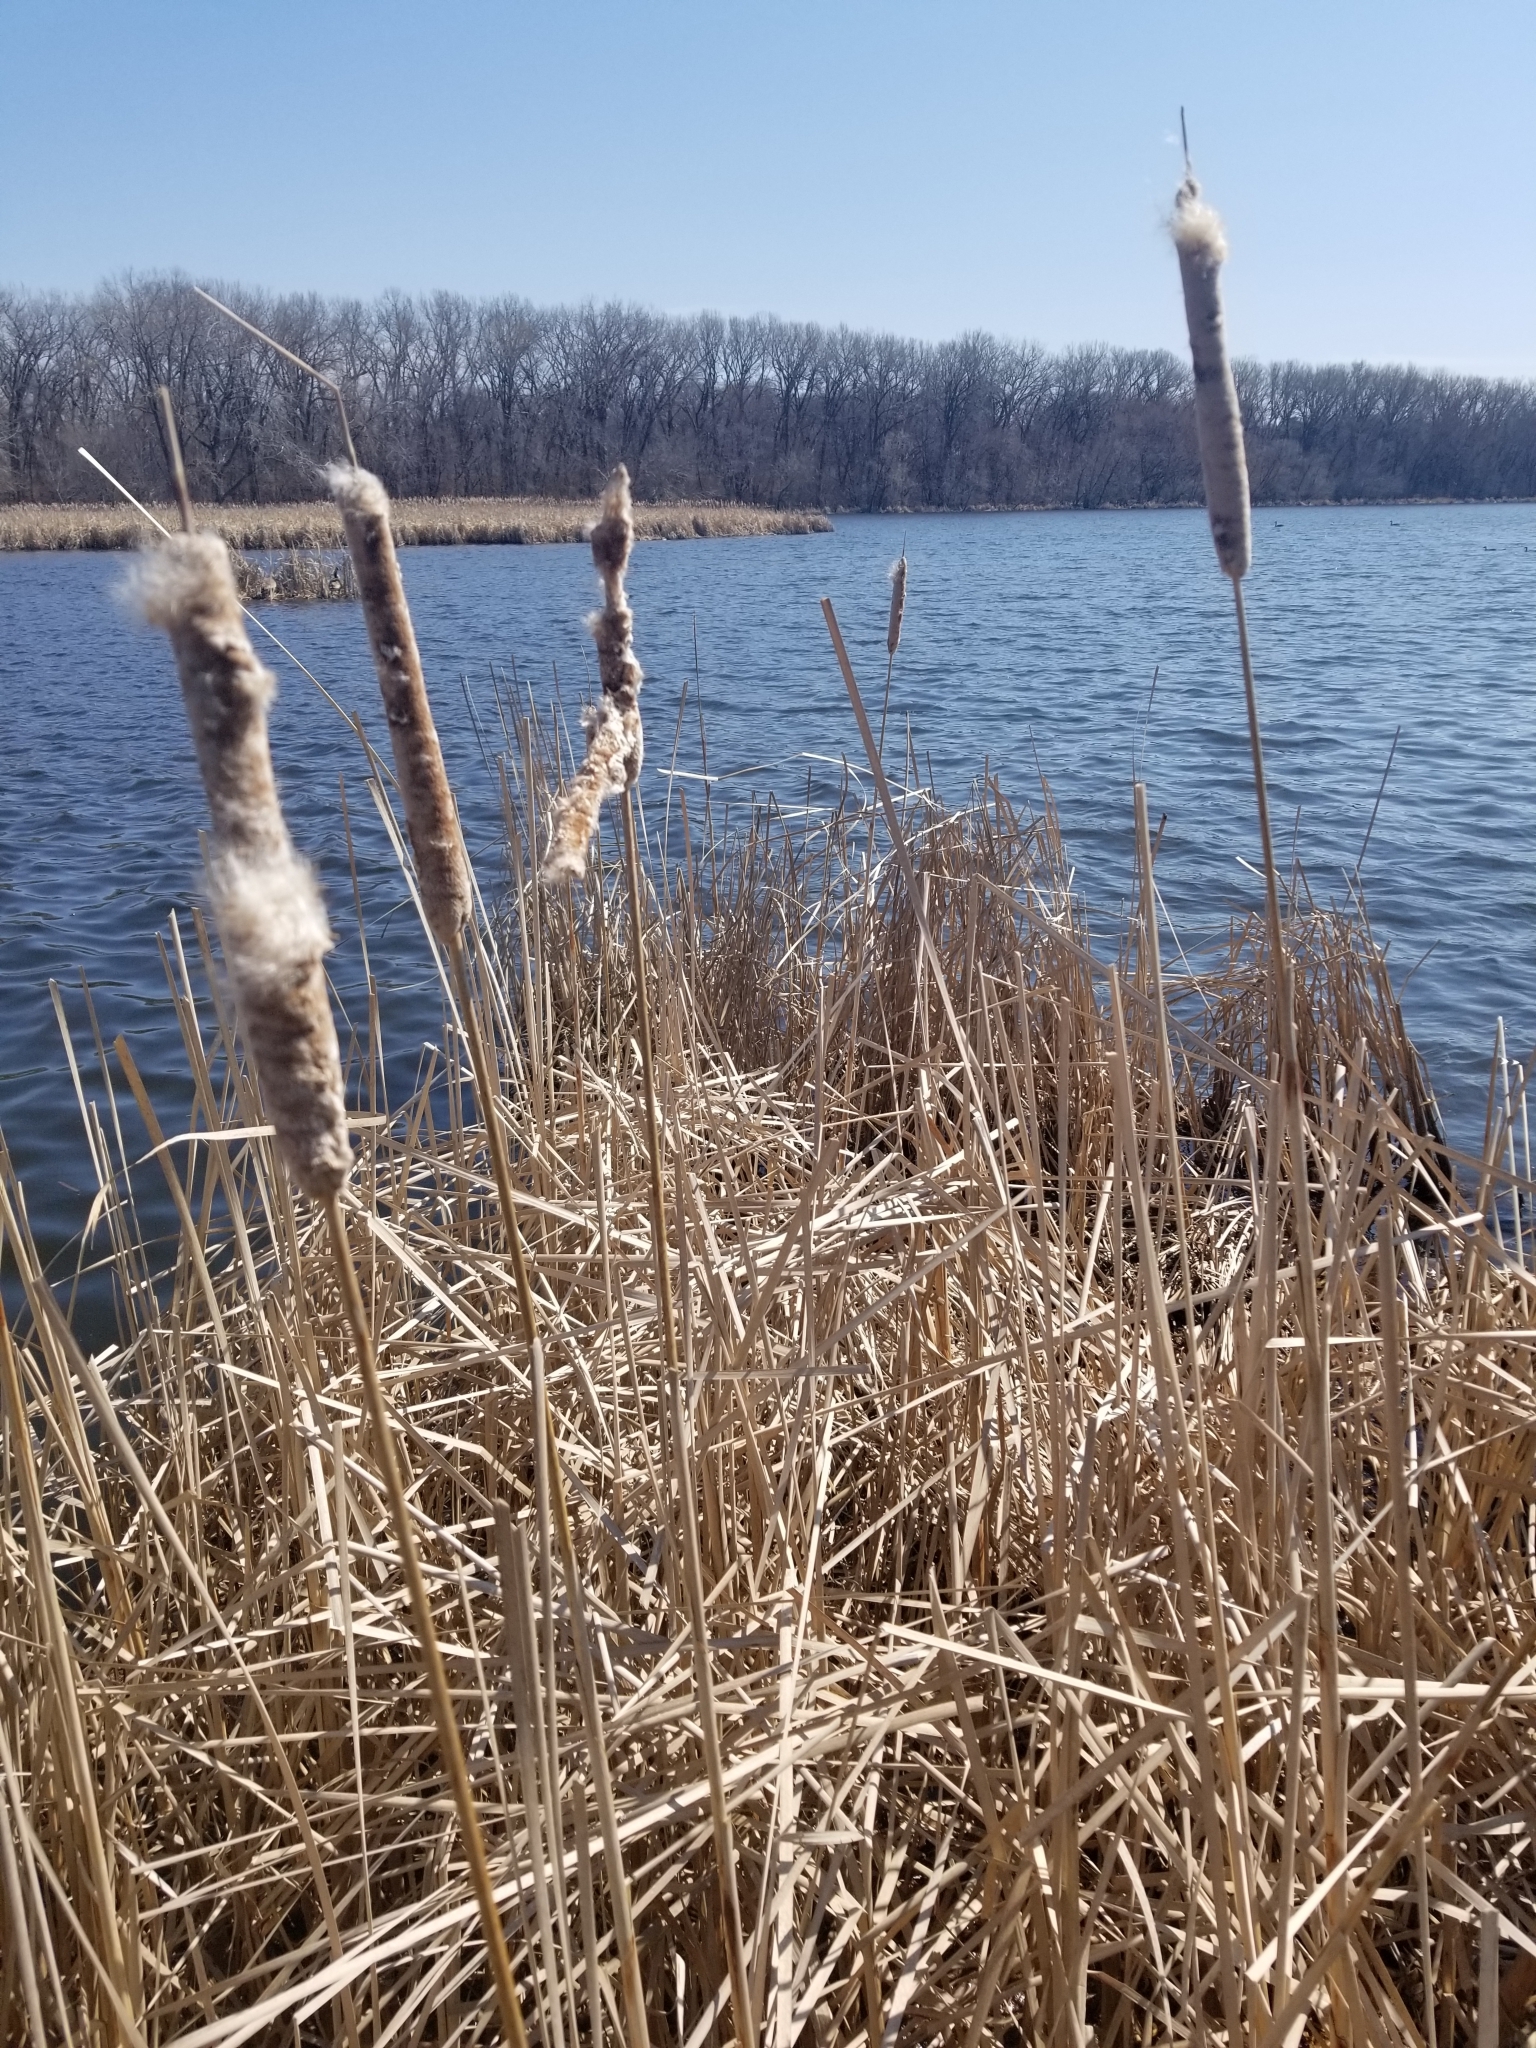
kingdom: Plantae
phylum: Tracheophyta
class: Liliopsida
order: Poales
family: Typhaceae
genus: Typha
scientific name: Typha glauca
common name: Blue cattail
